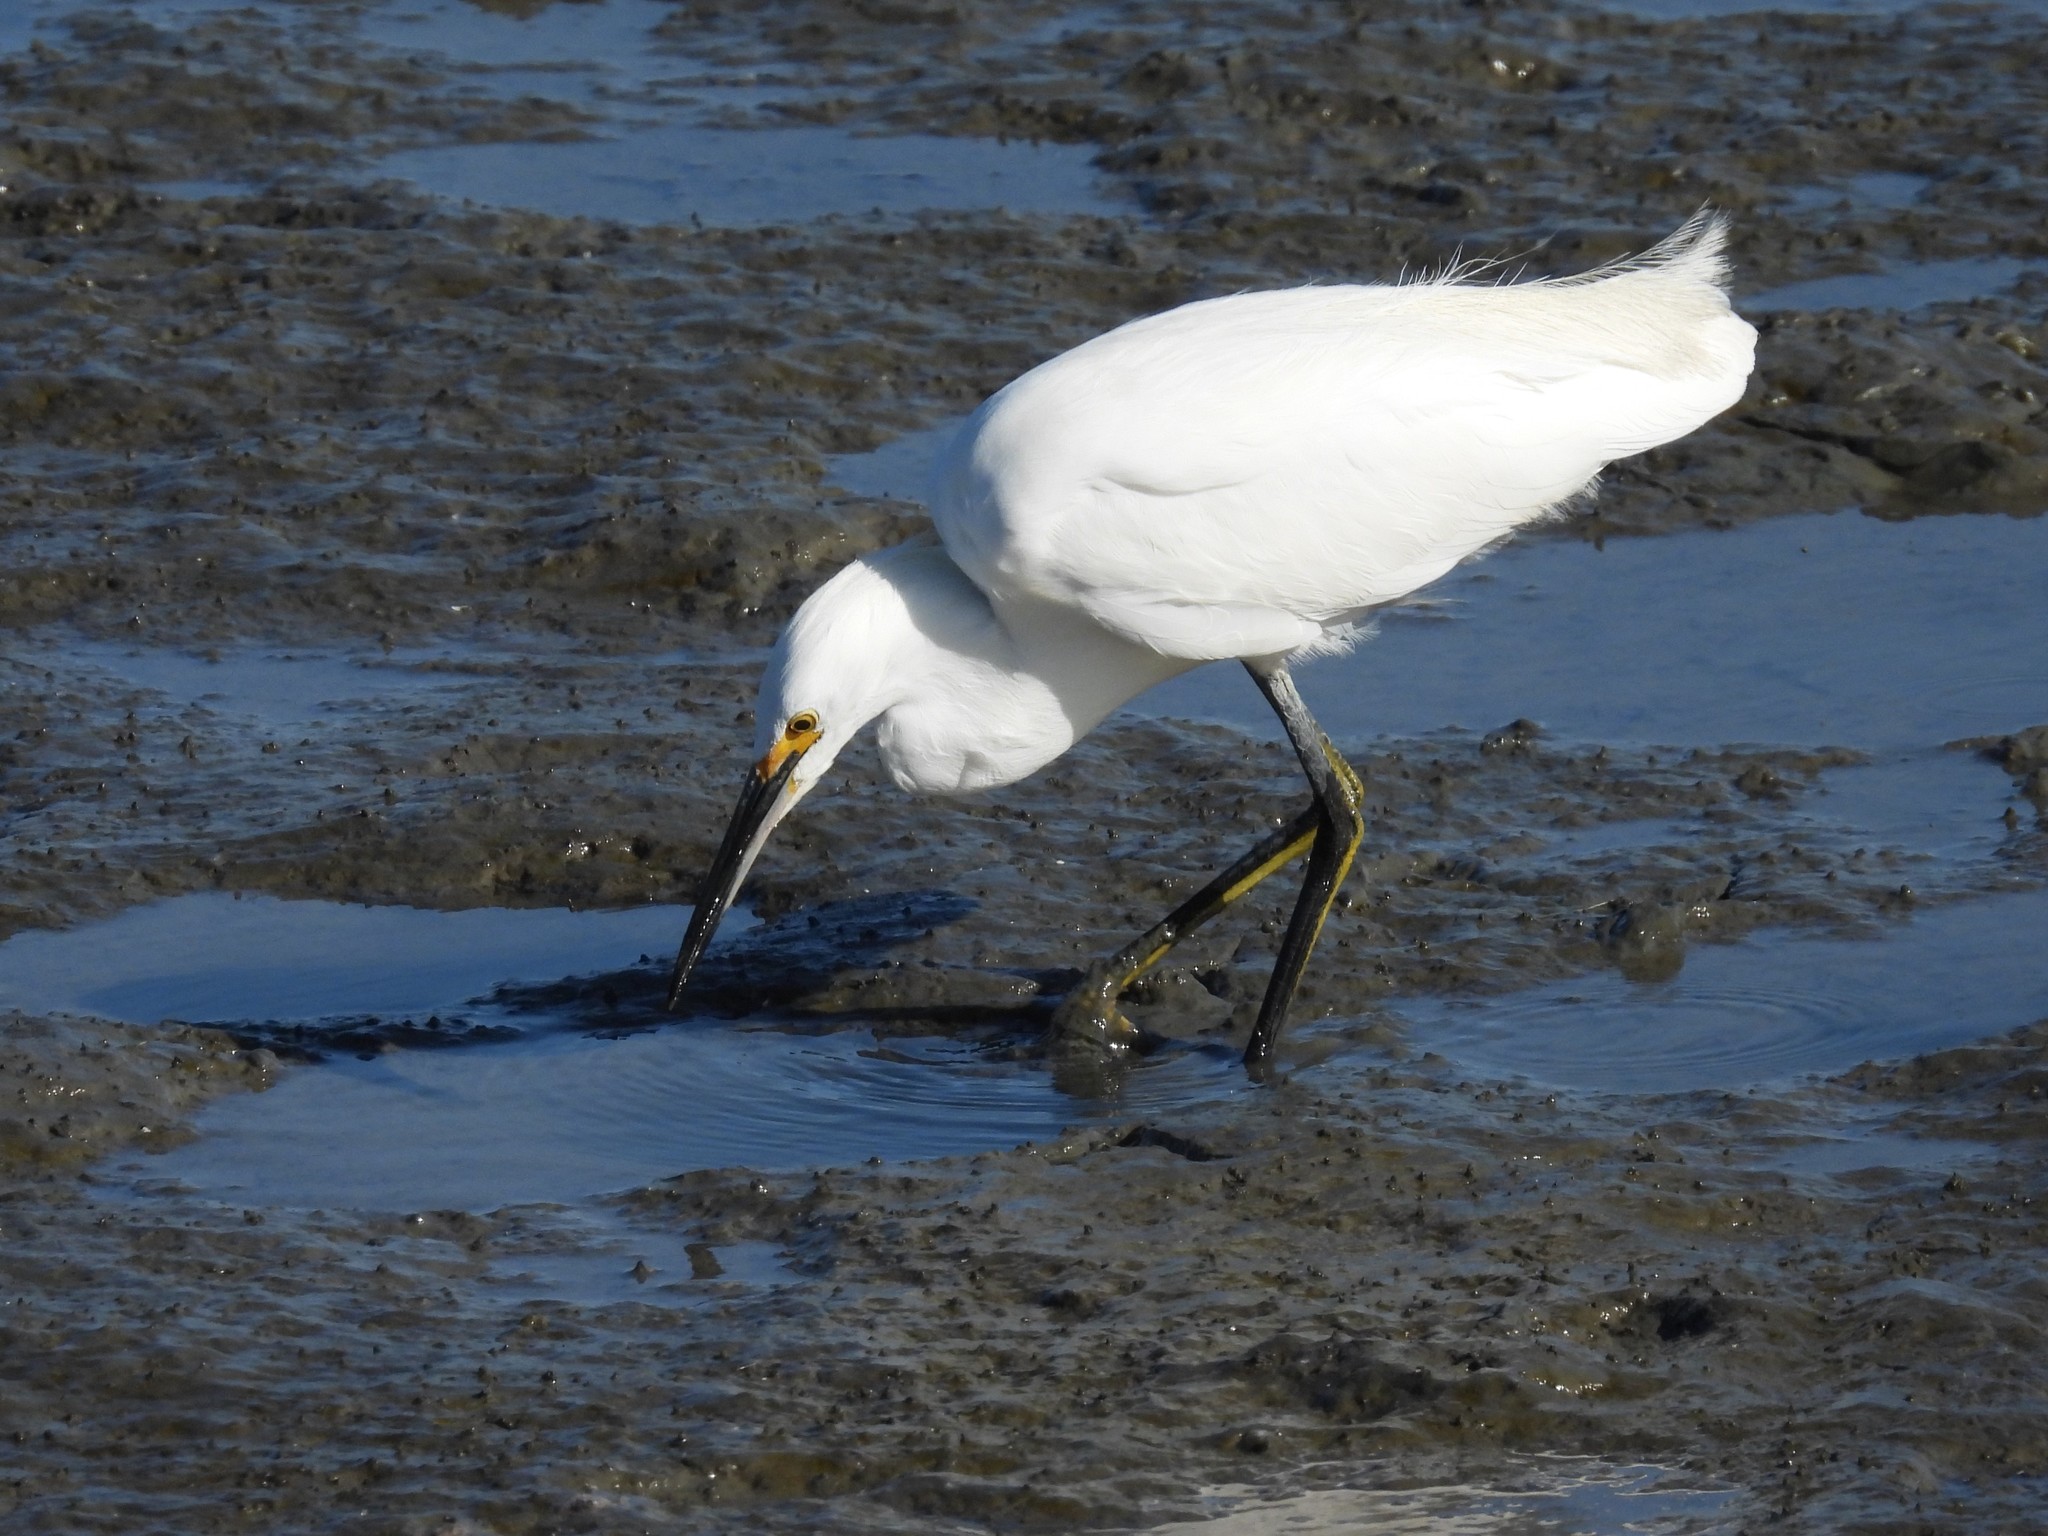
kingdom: Animalia
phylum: Chordata
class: Aves
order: Pelecaniformes
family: Ardeidae
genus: Egretta
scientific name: Egretta thula
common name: Snowy egret
